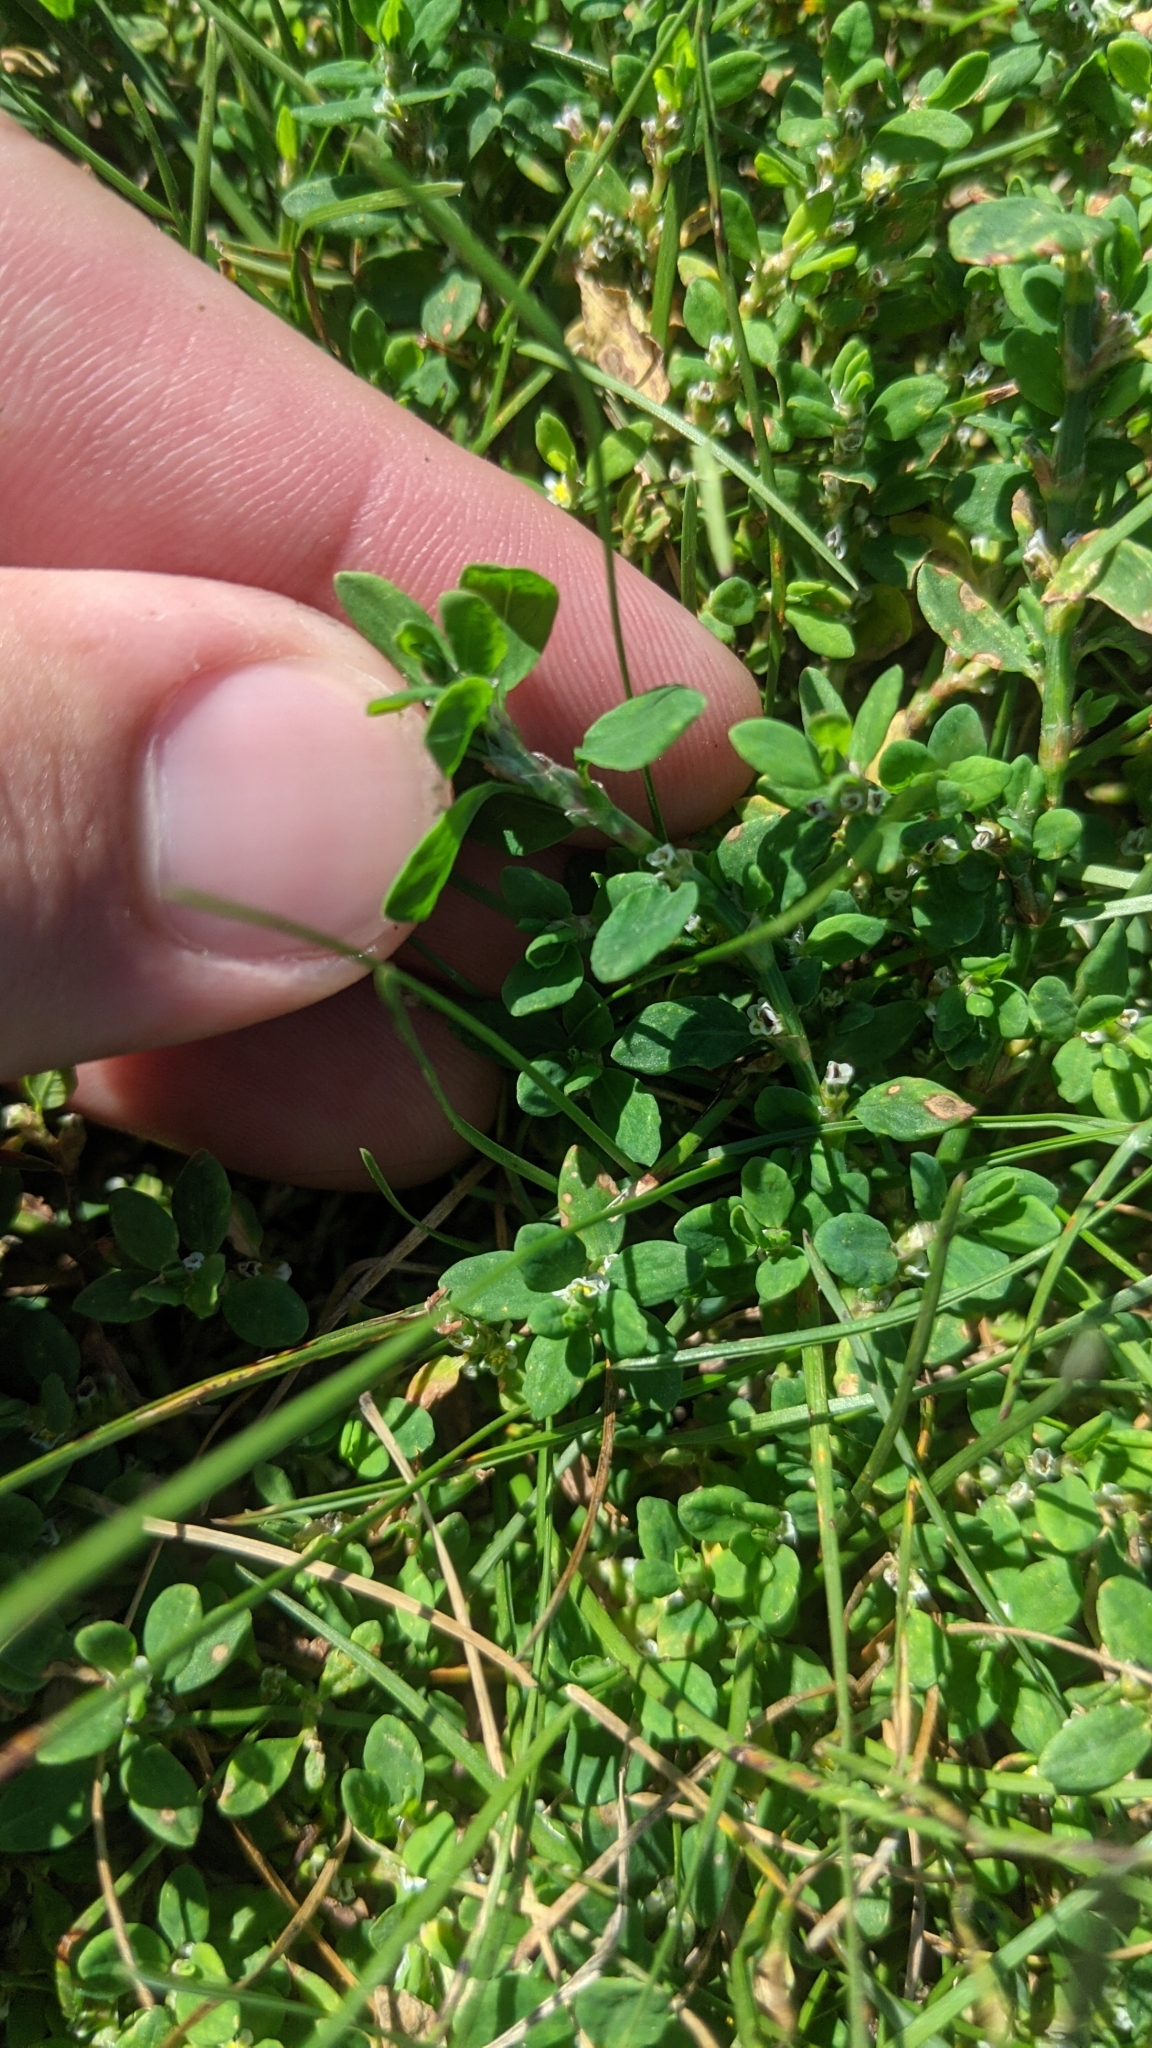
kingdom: Plantae
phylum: Tracheophyta
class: Magnoliopsida
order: Caryophyllales
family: Polygonaceae
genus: Polygonum
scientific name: Polygonum aviculare
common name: Prostrate knotweed
